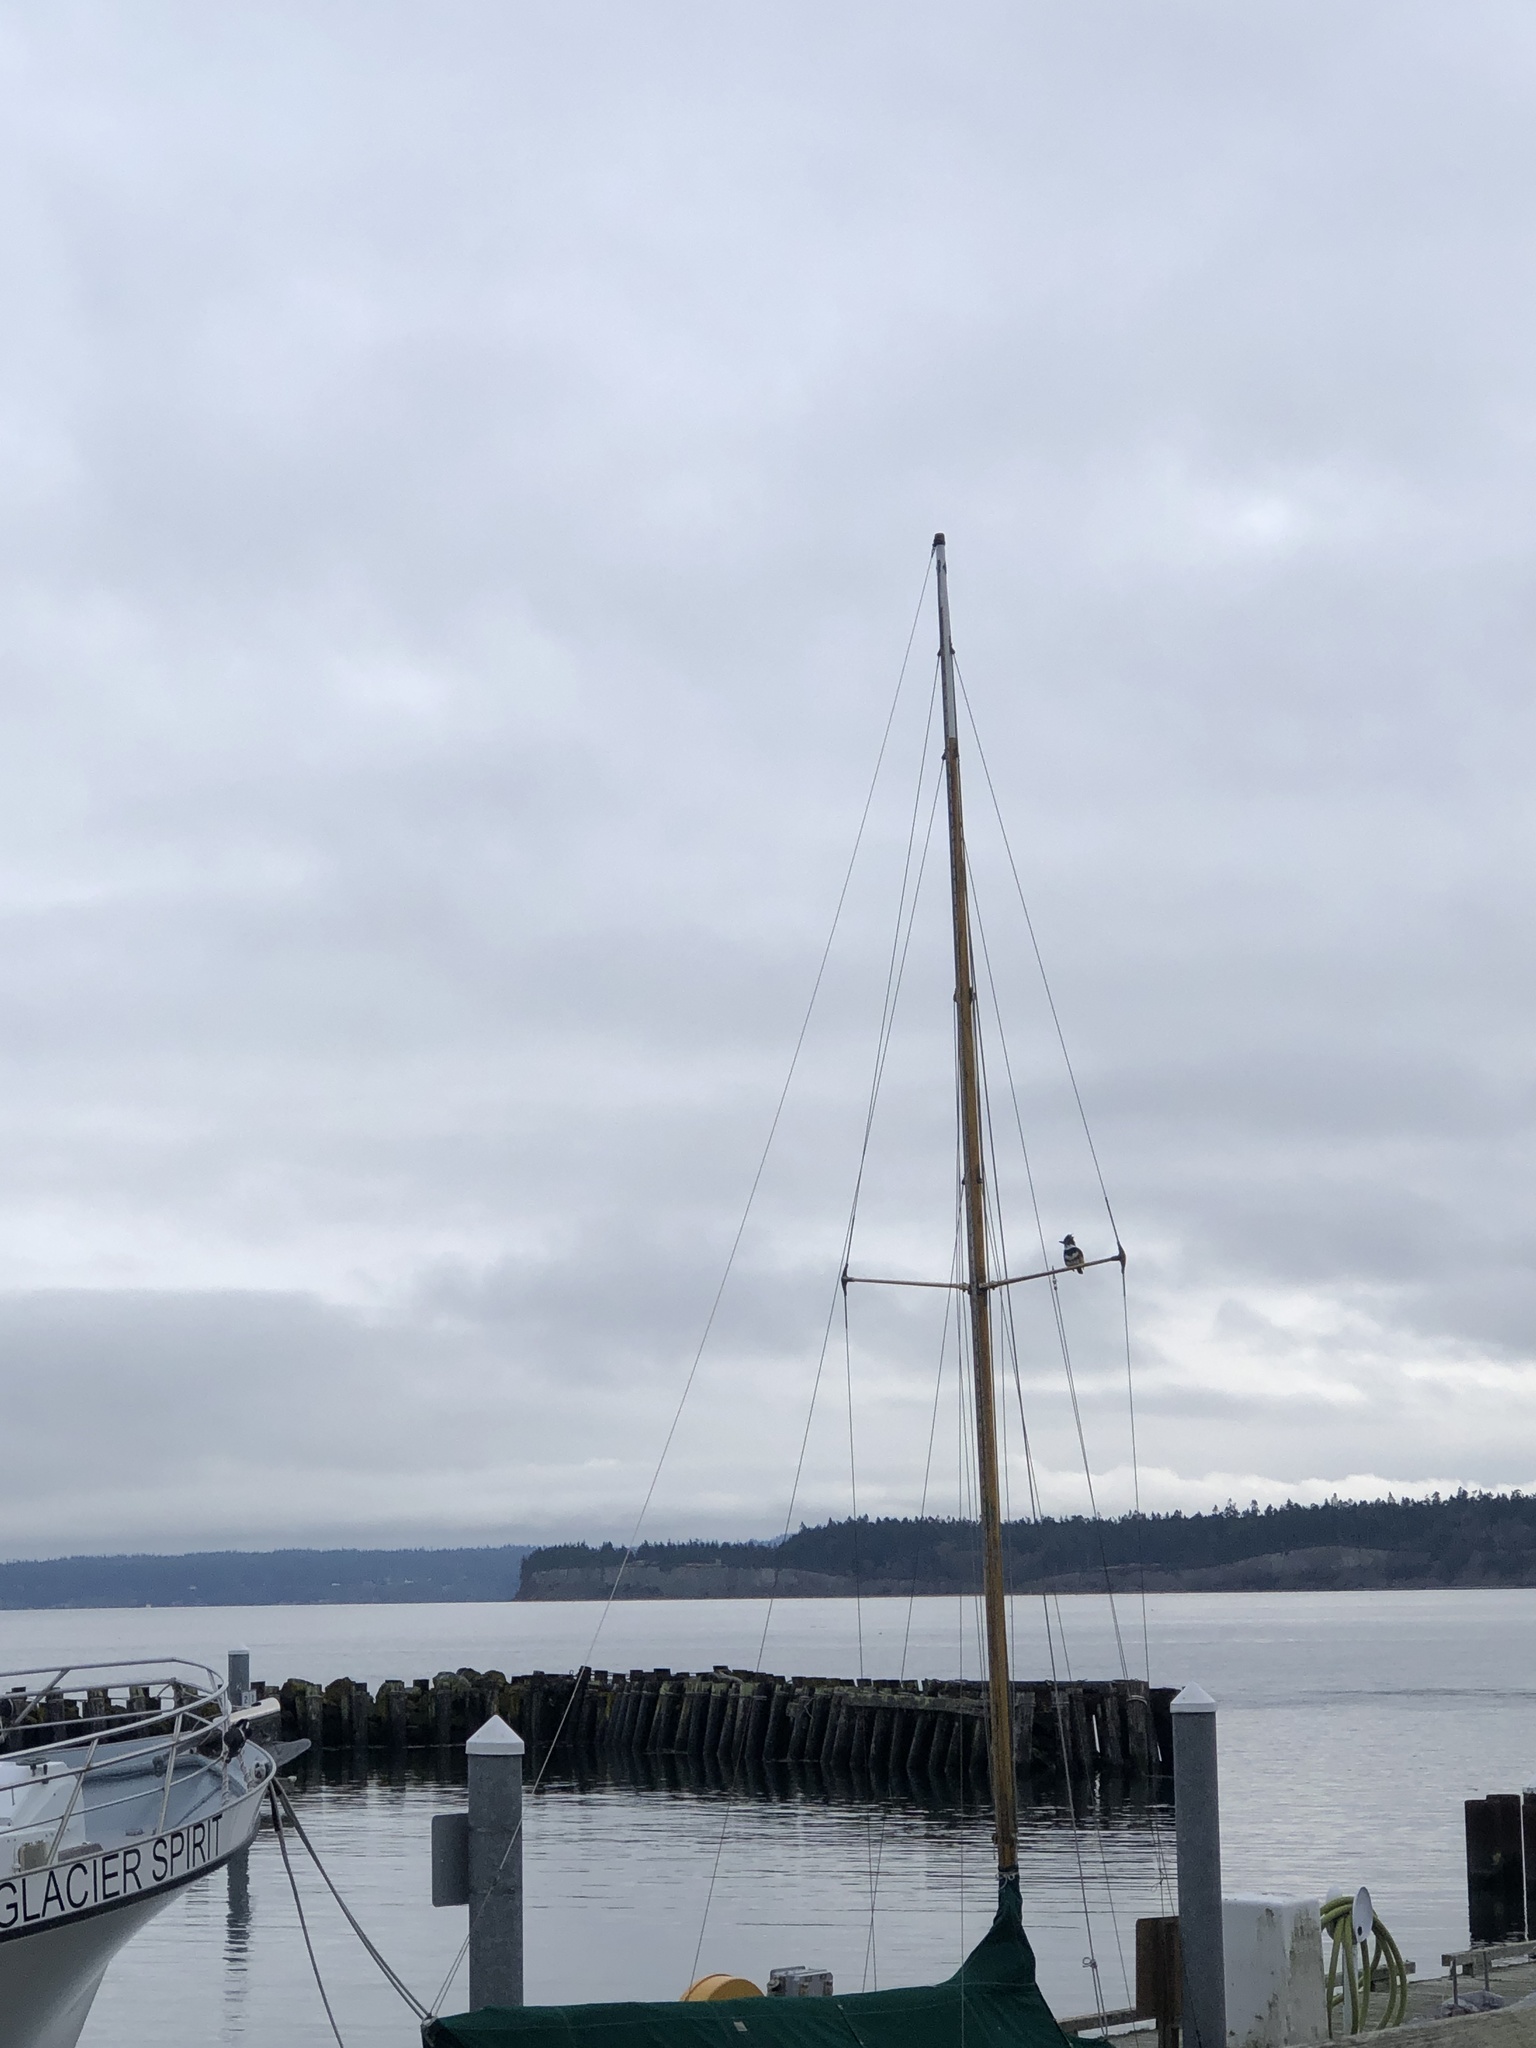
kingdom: Animalia
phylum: Chordata
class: Aves
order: Coraciiformes
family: Alcedinidae
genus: Megaceryle
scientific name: Megaceryle alcyon
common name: Belted kingfisher
